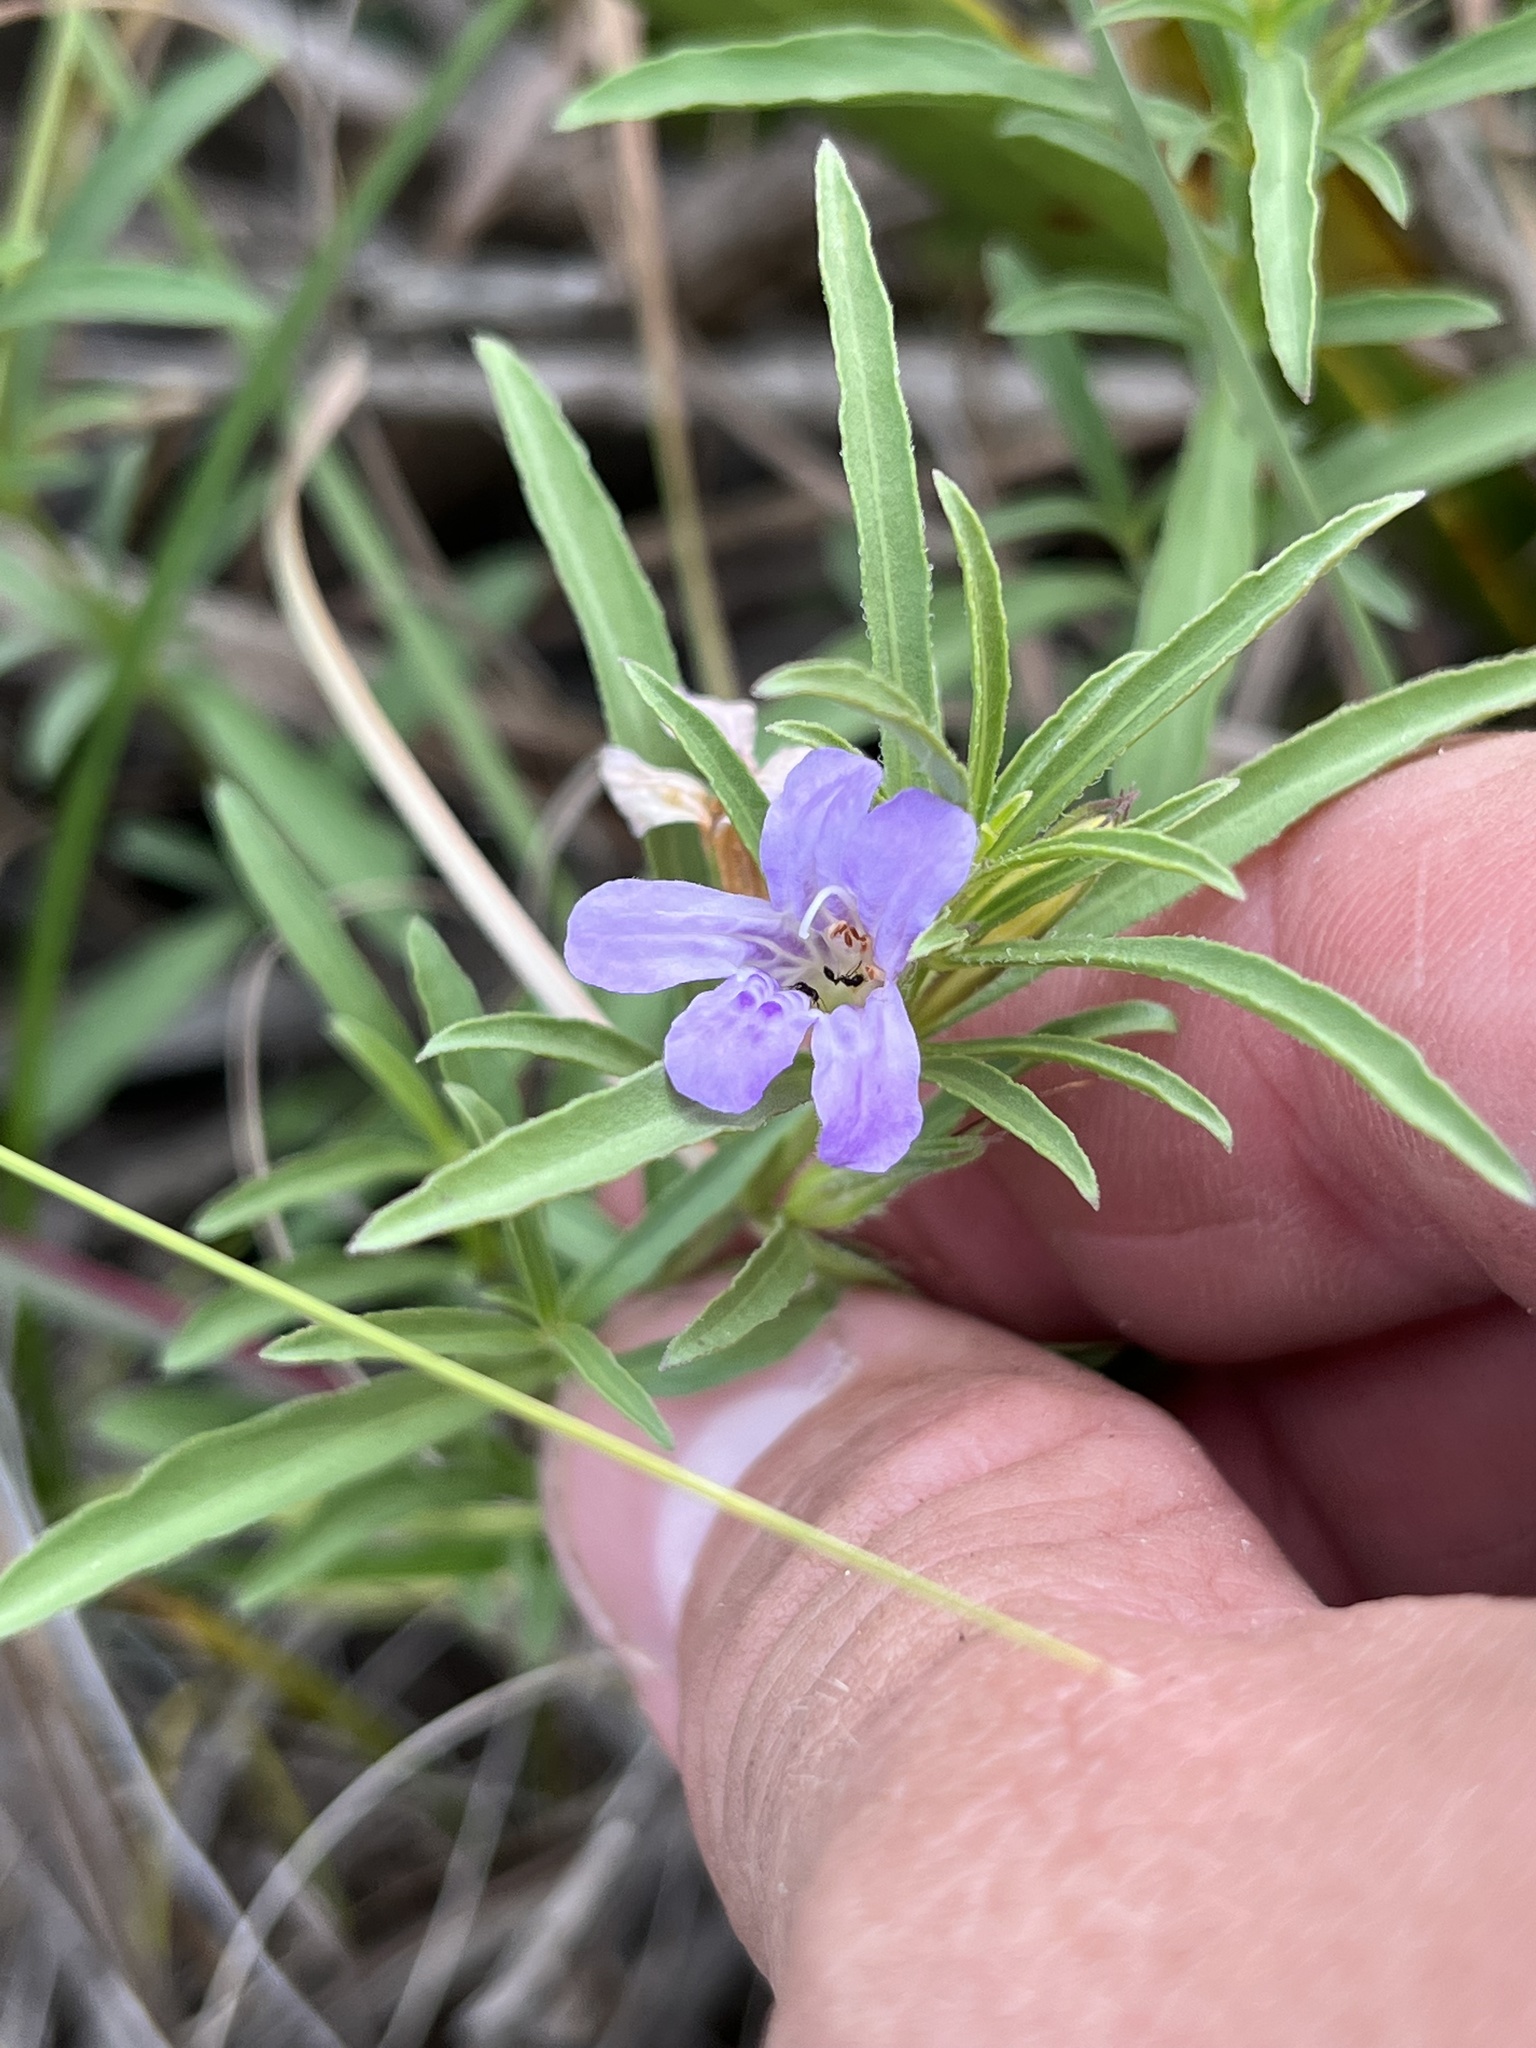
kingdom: Plantae
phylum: Tracheophyta
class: Magnoliopsida
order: Lamiales
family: Acanthaceae
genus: Dyschoriste
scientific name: Dyschoriste linearis
